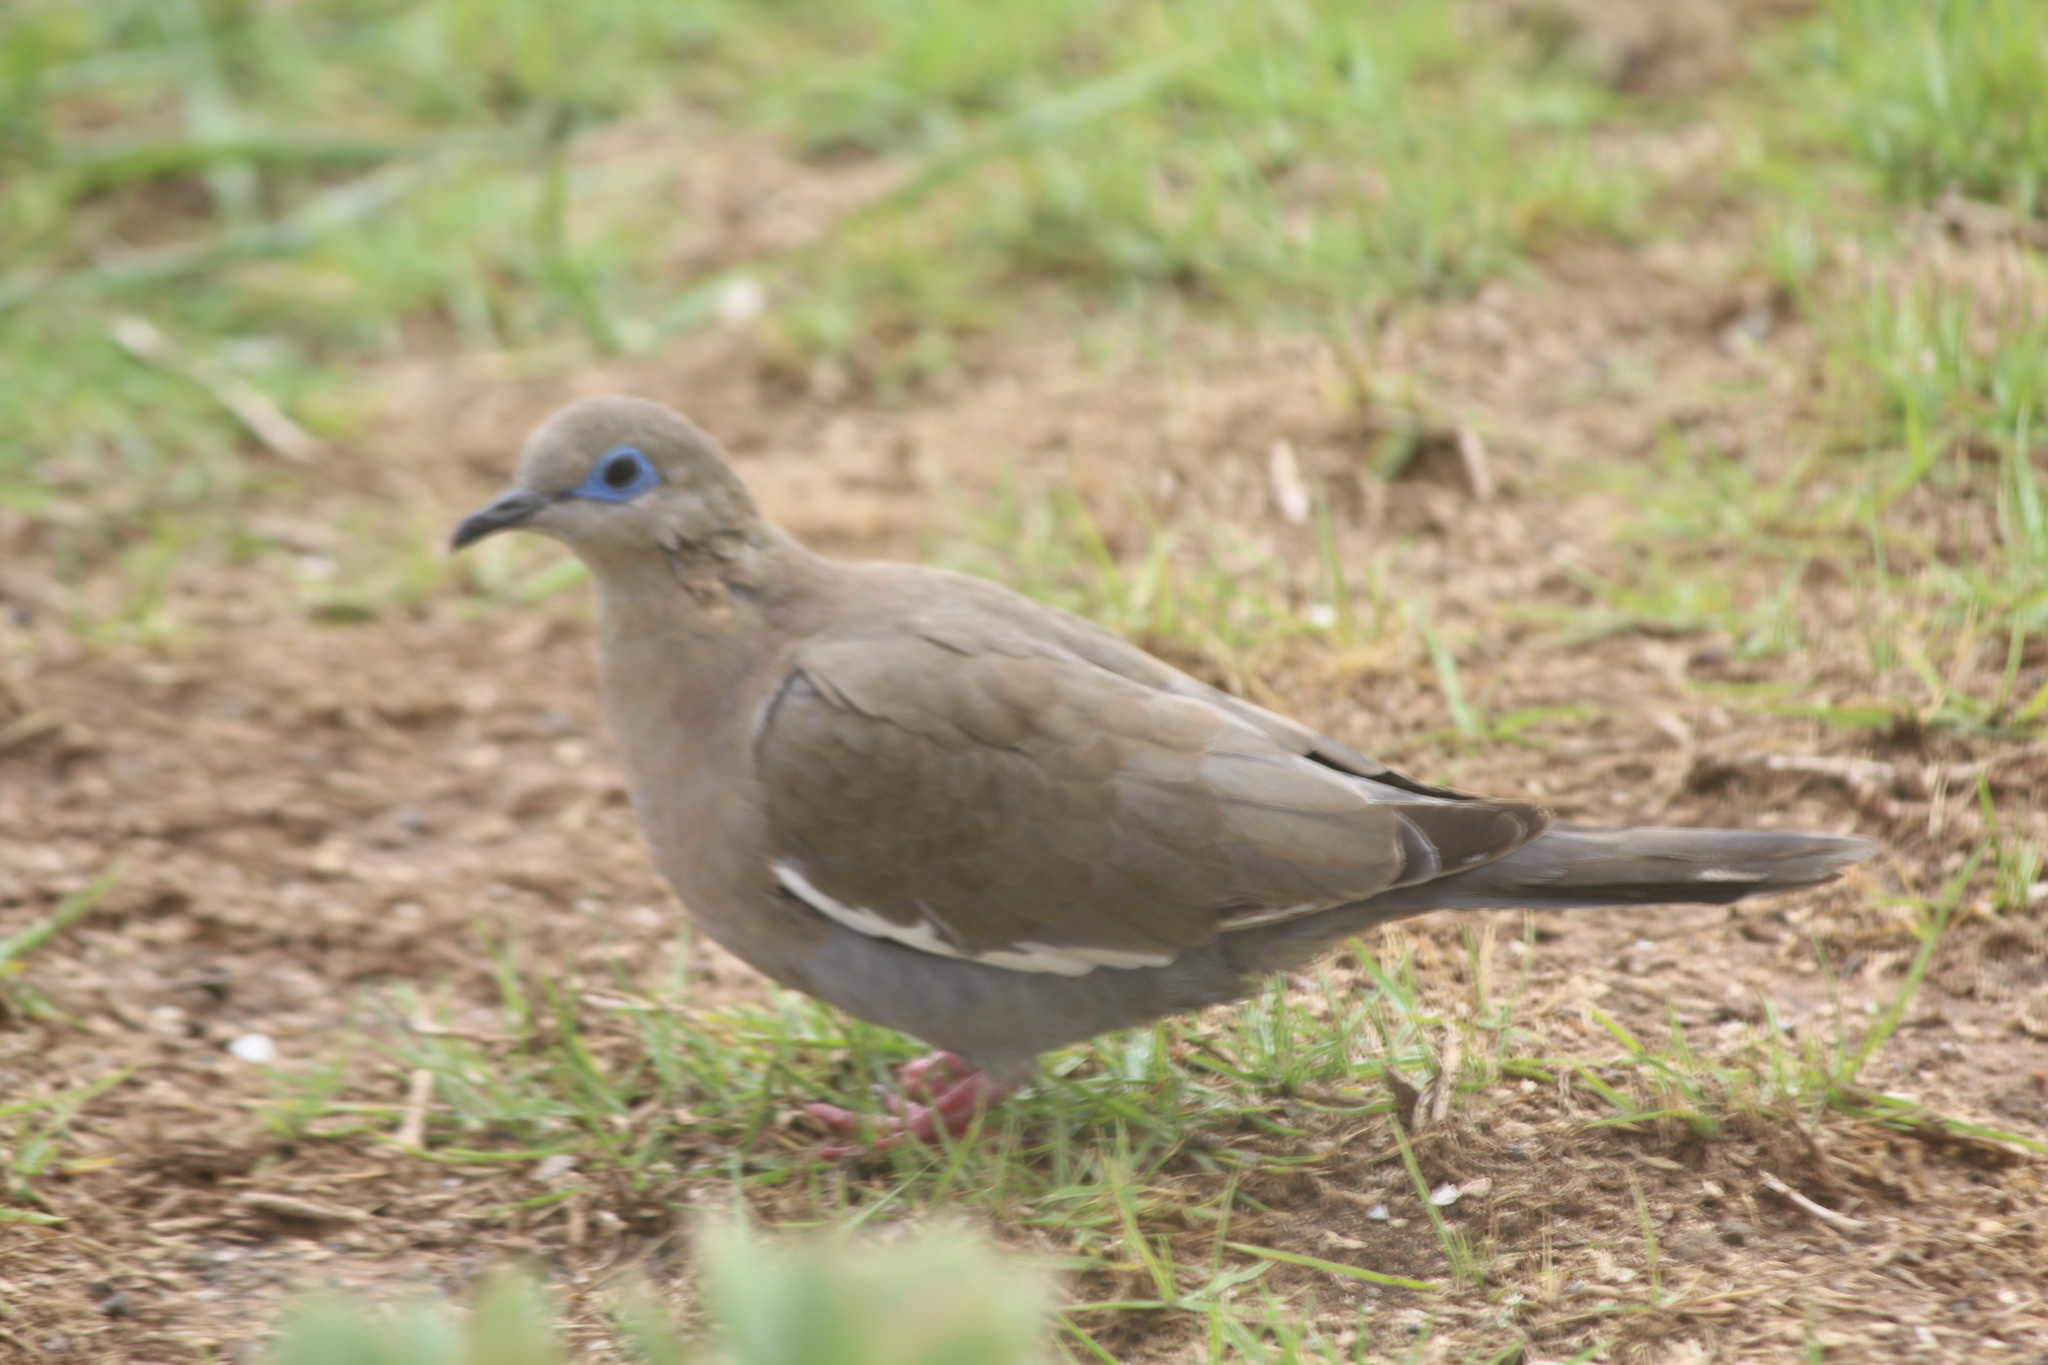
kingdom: Animalia
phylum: Chordata
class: Aves
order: Columbiformes
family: Columbidae
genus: Zenaida
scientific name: Zenaida meloda
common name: West peruvian dove
